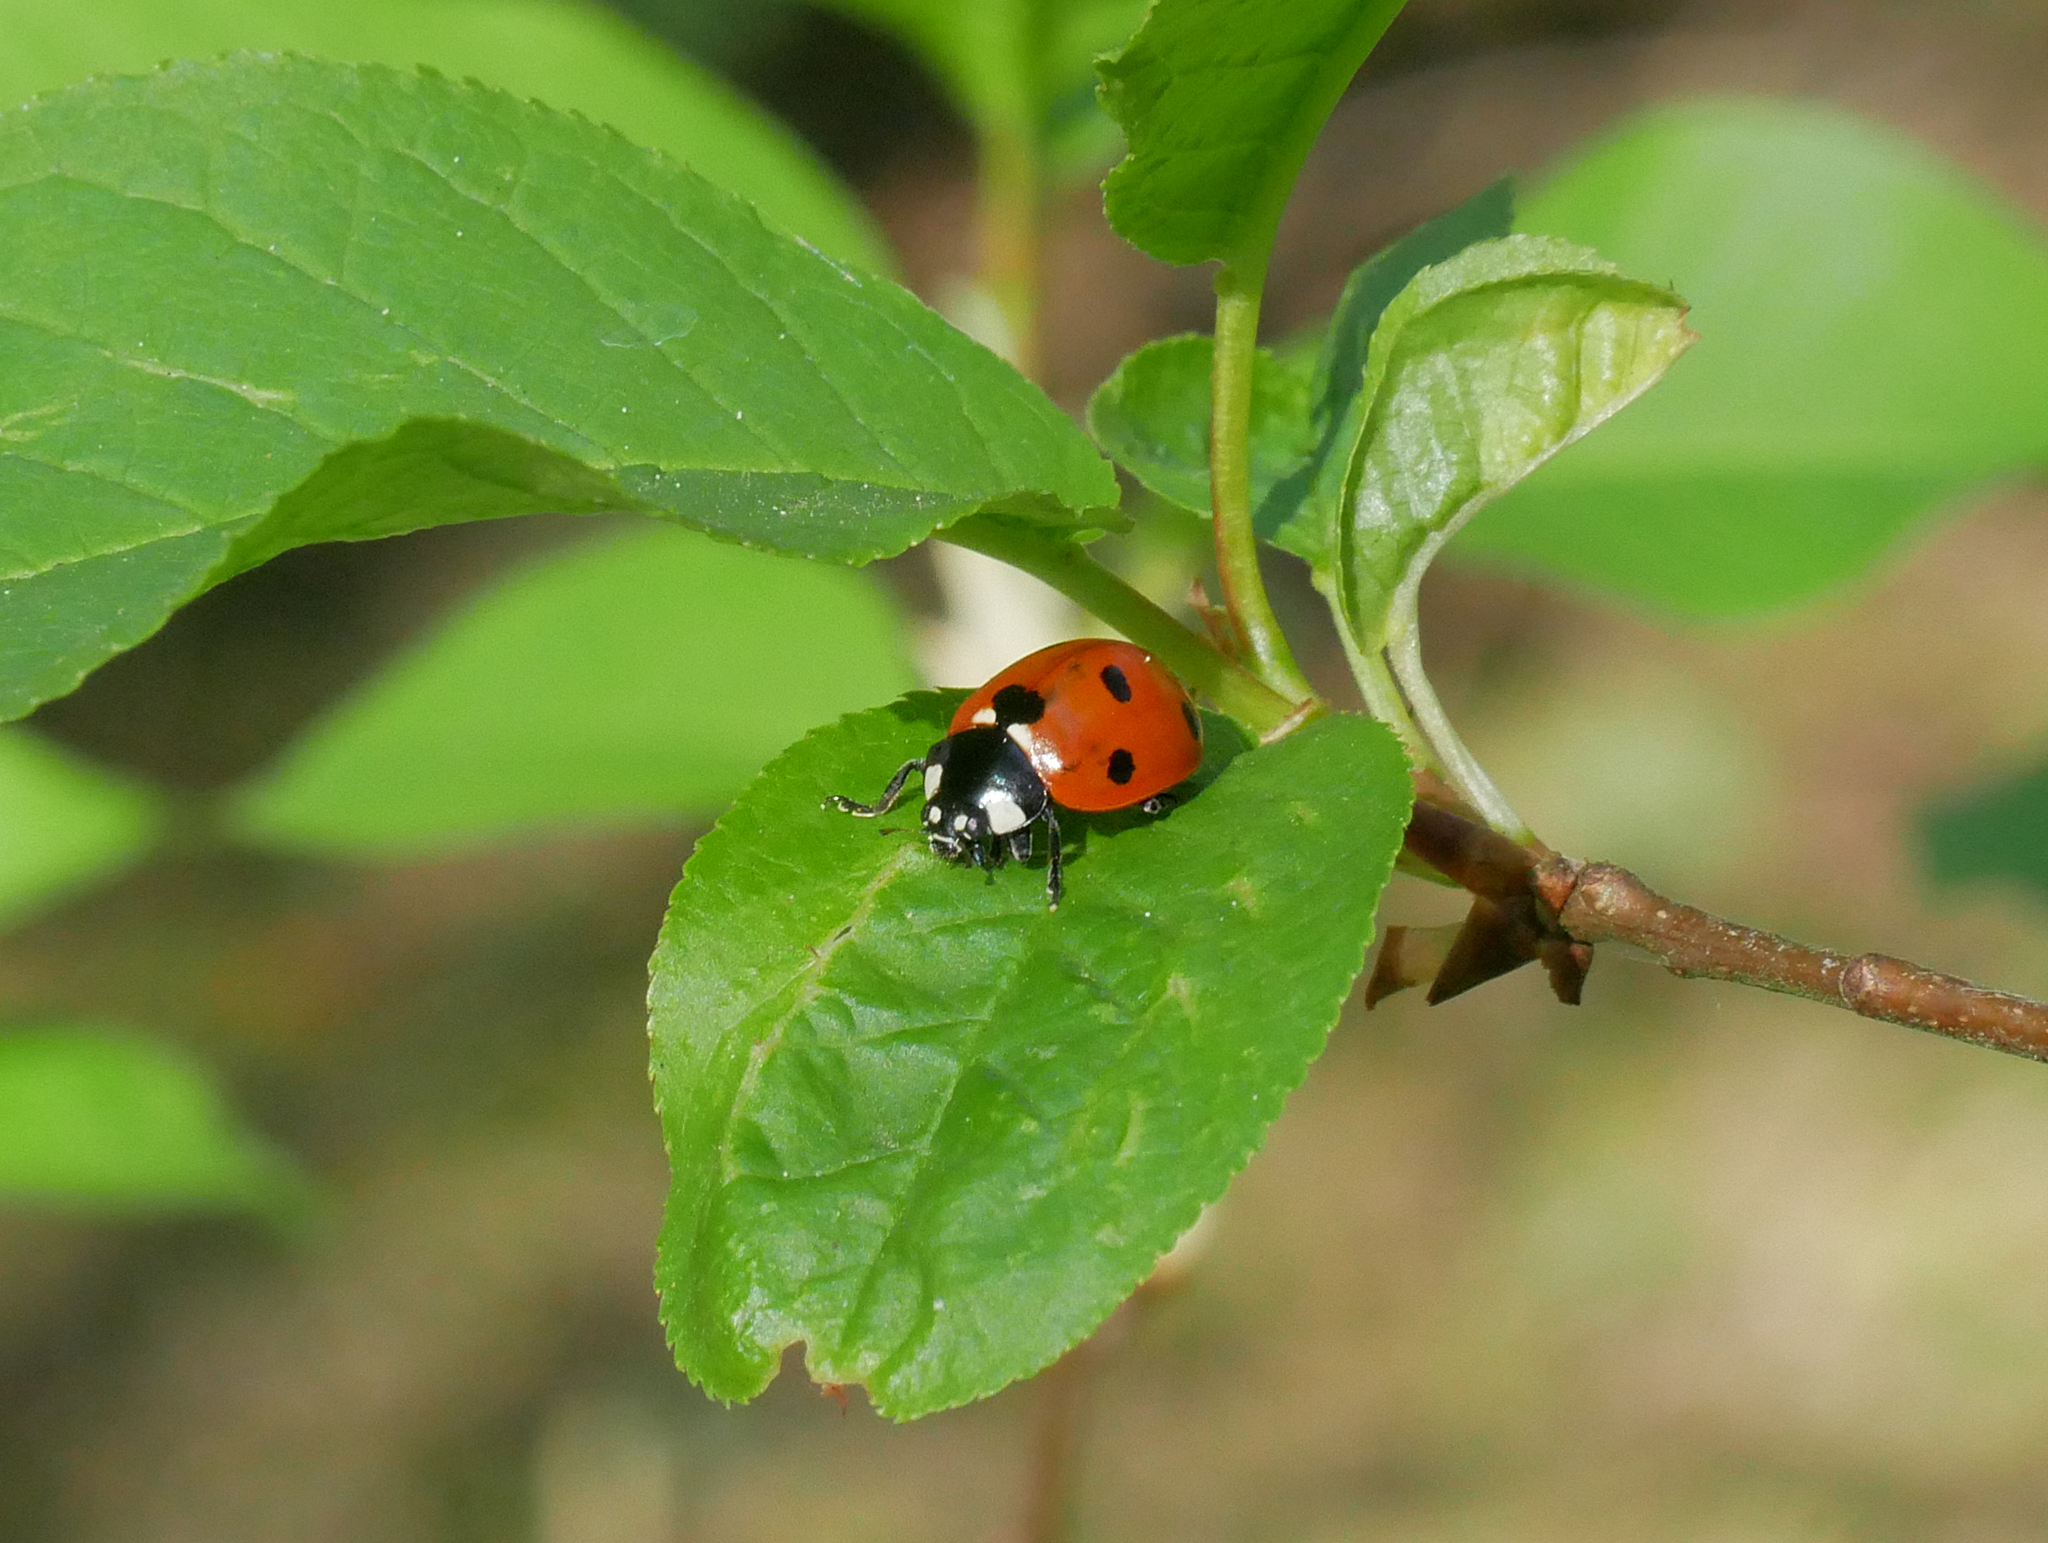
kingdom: Animalia
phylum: Arthropoda
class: Insecta
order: Coleoptera
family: Coccinellidae
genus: Coccinella
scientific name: Coccinella septempunctata
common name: Sevenspotted lady beetle
